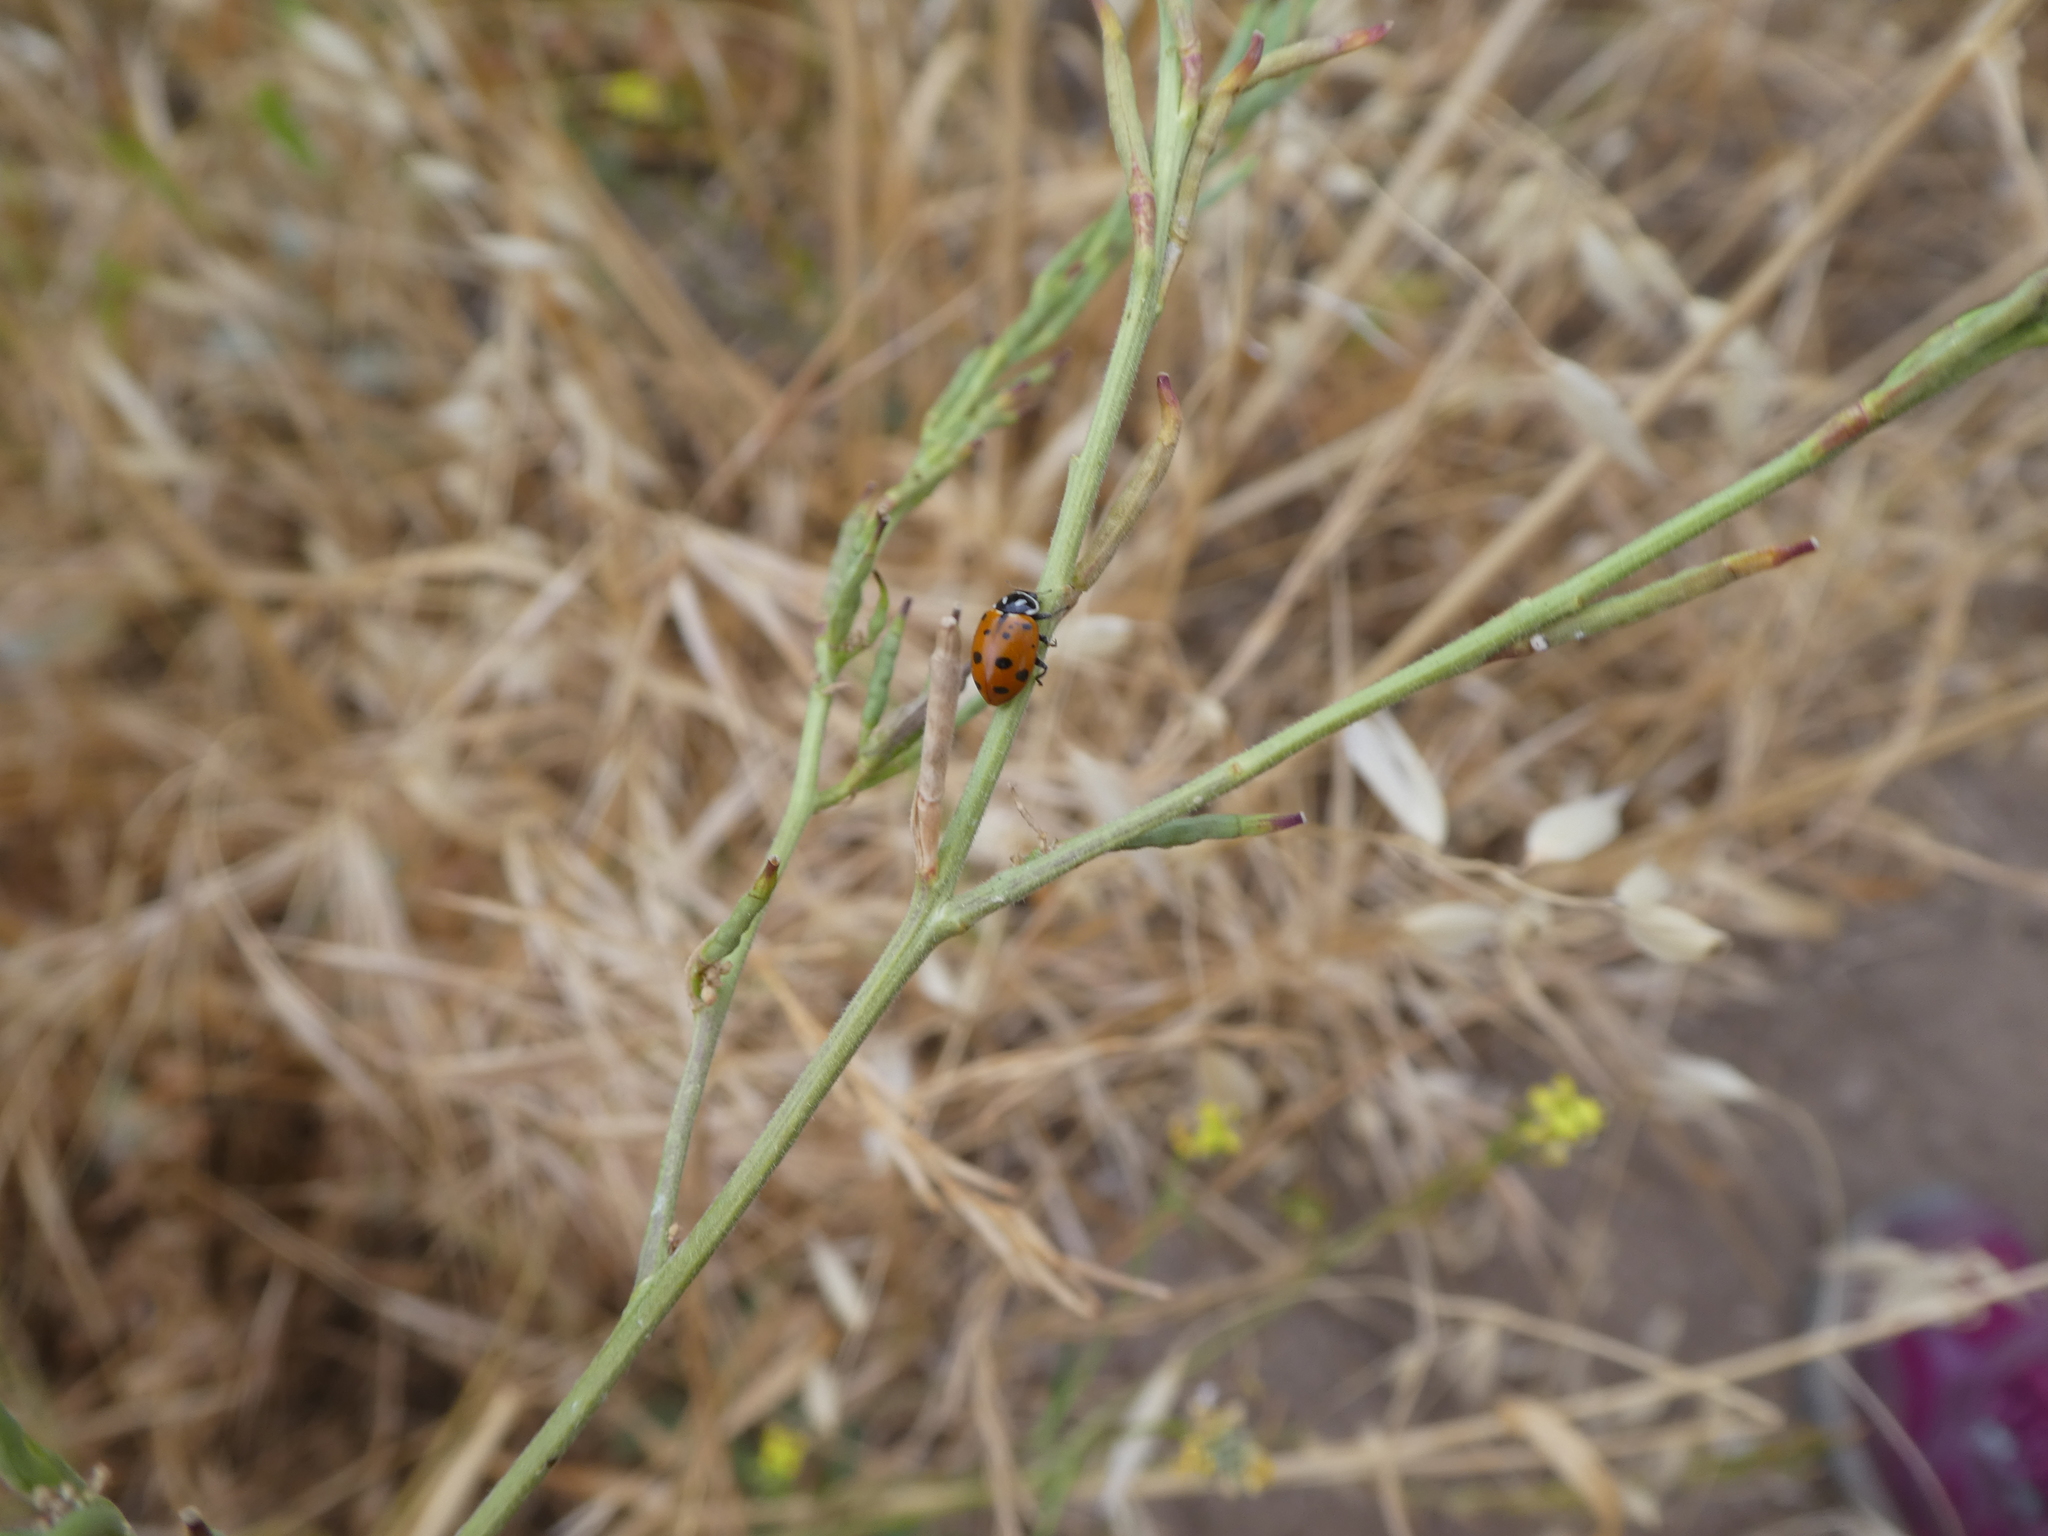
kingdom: Animalia
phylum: Arthropoda
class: Insecta
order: Coleoptera
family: Coccinellidae
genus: Hippodamia
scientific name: Hippodamia convergens
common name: Convergent lady beetle
